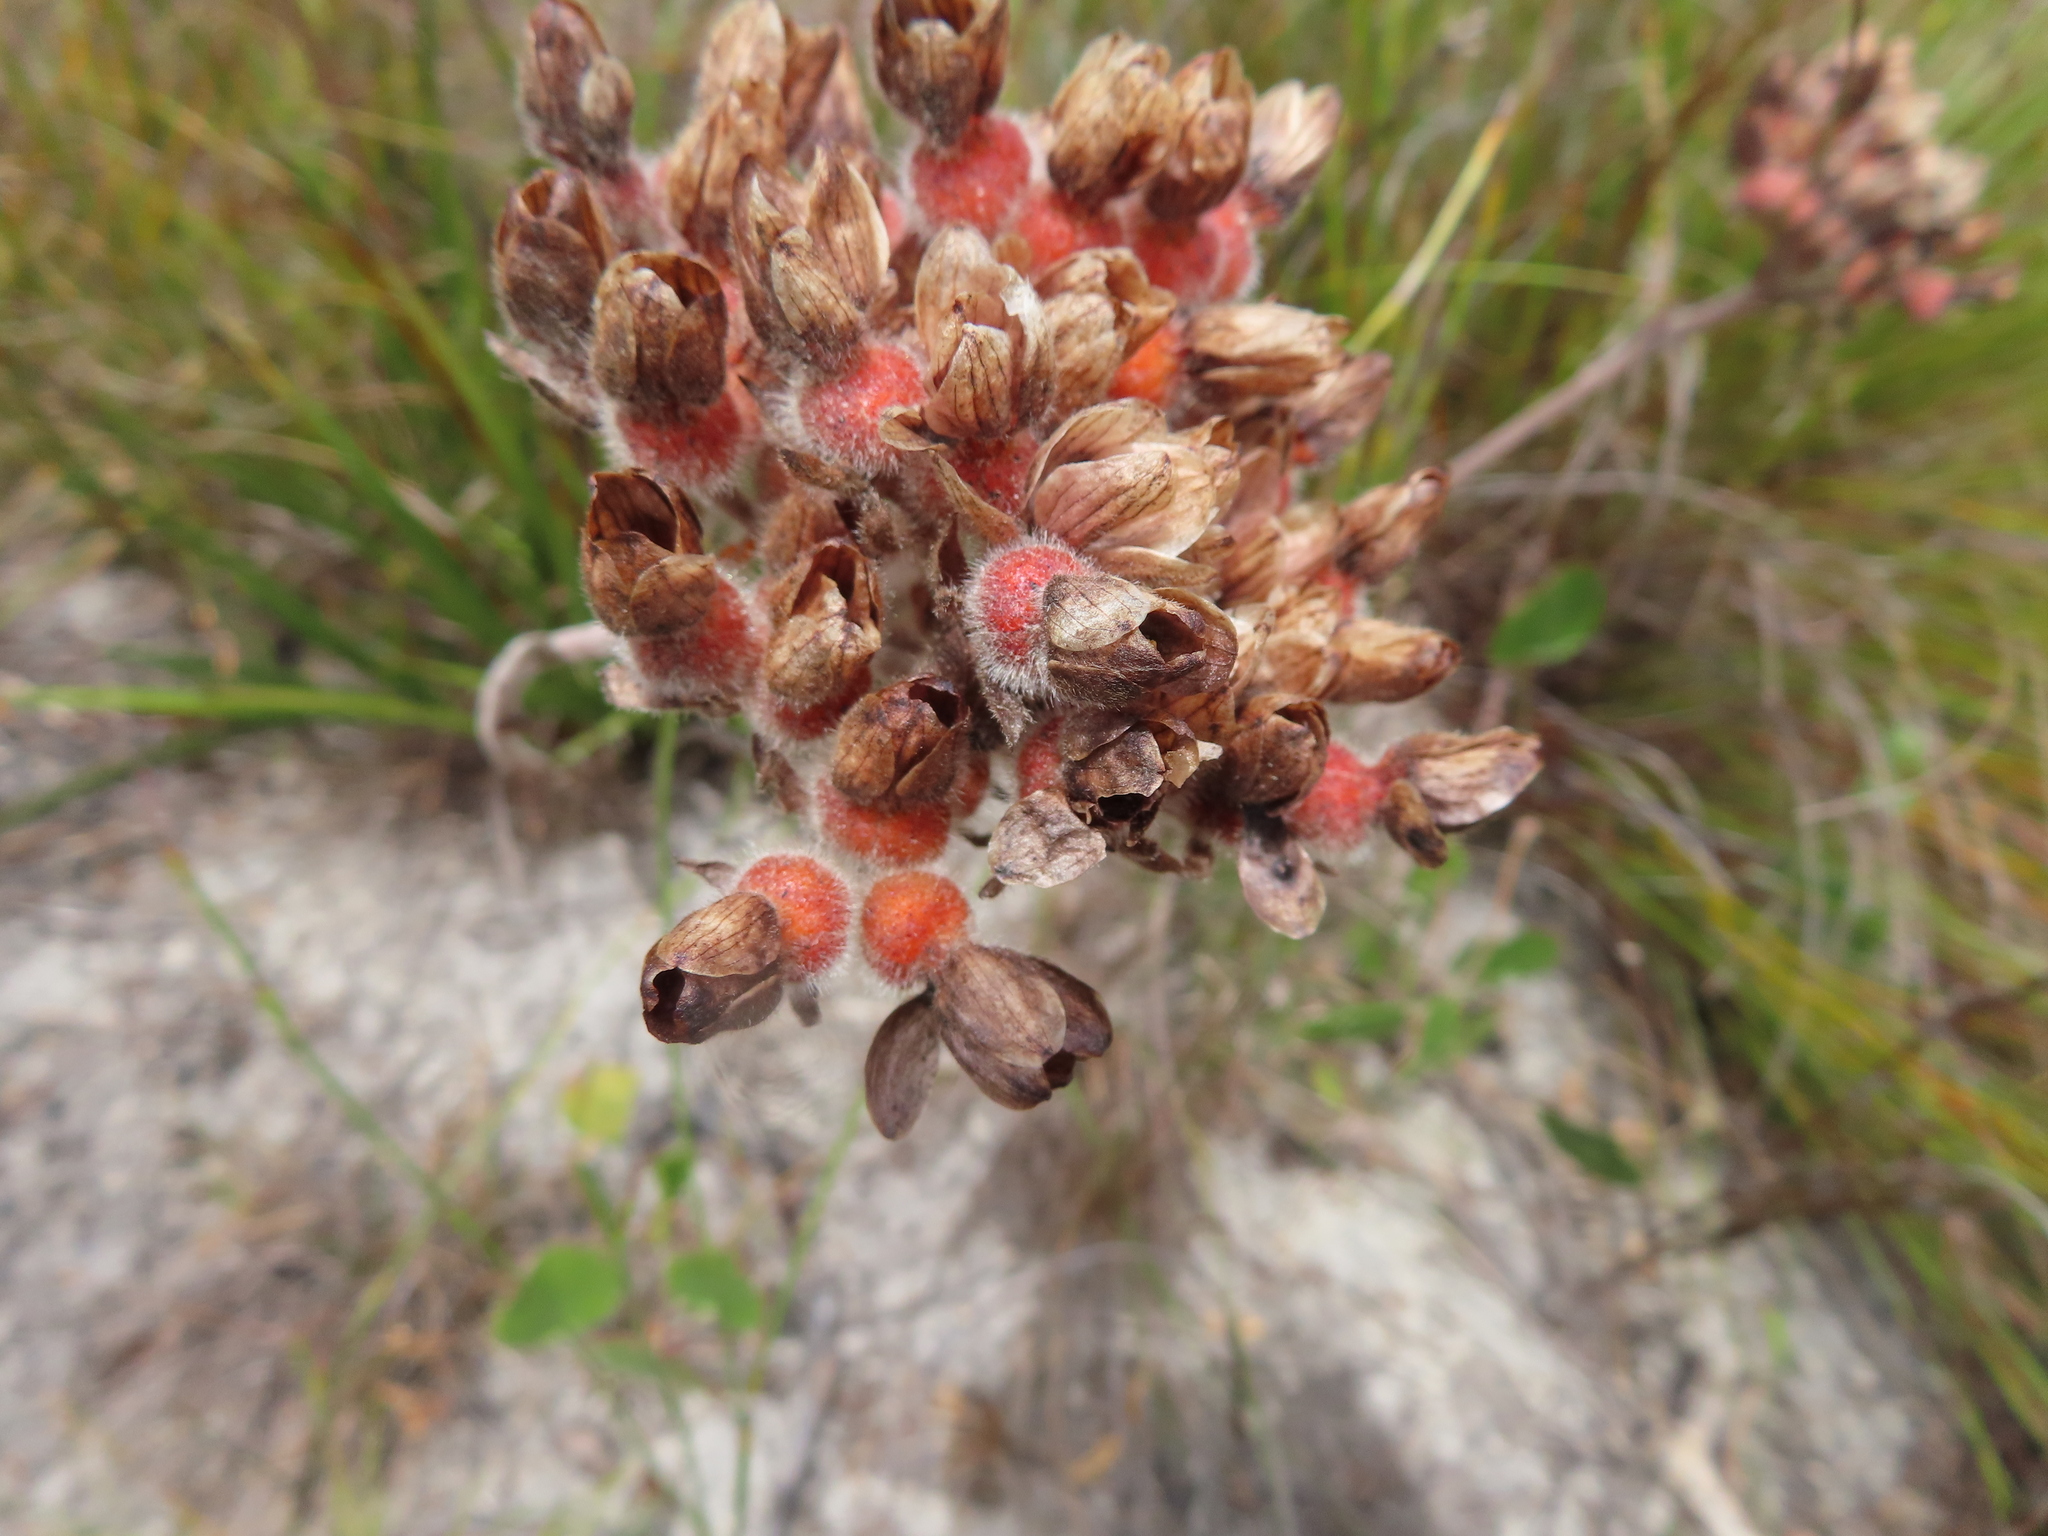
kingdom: Plantae
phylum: Tracheophyta
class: Liliopsida
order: Commelinales
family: Haemodoraceae
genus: Dilatris
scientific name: Dilatris pillansii
